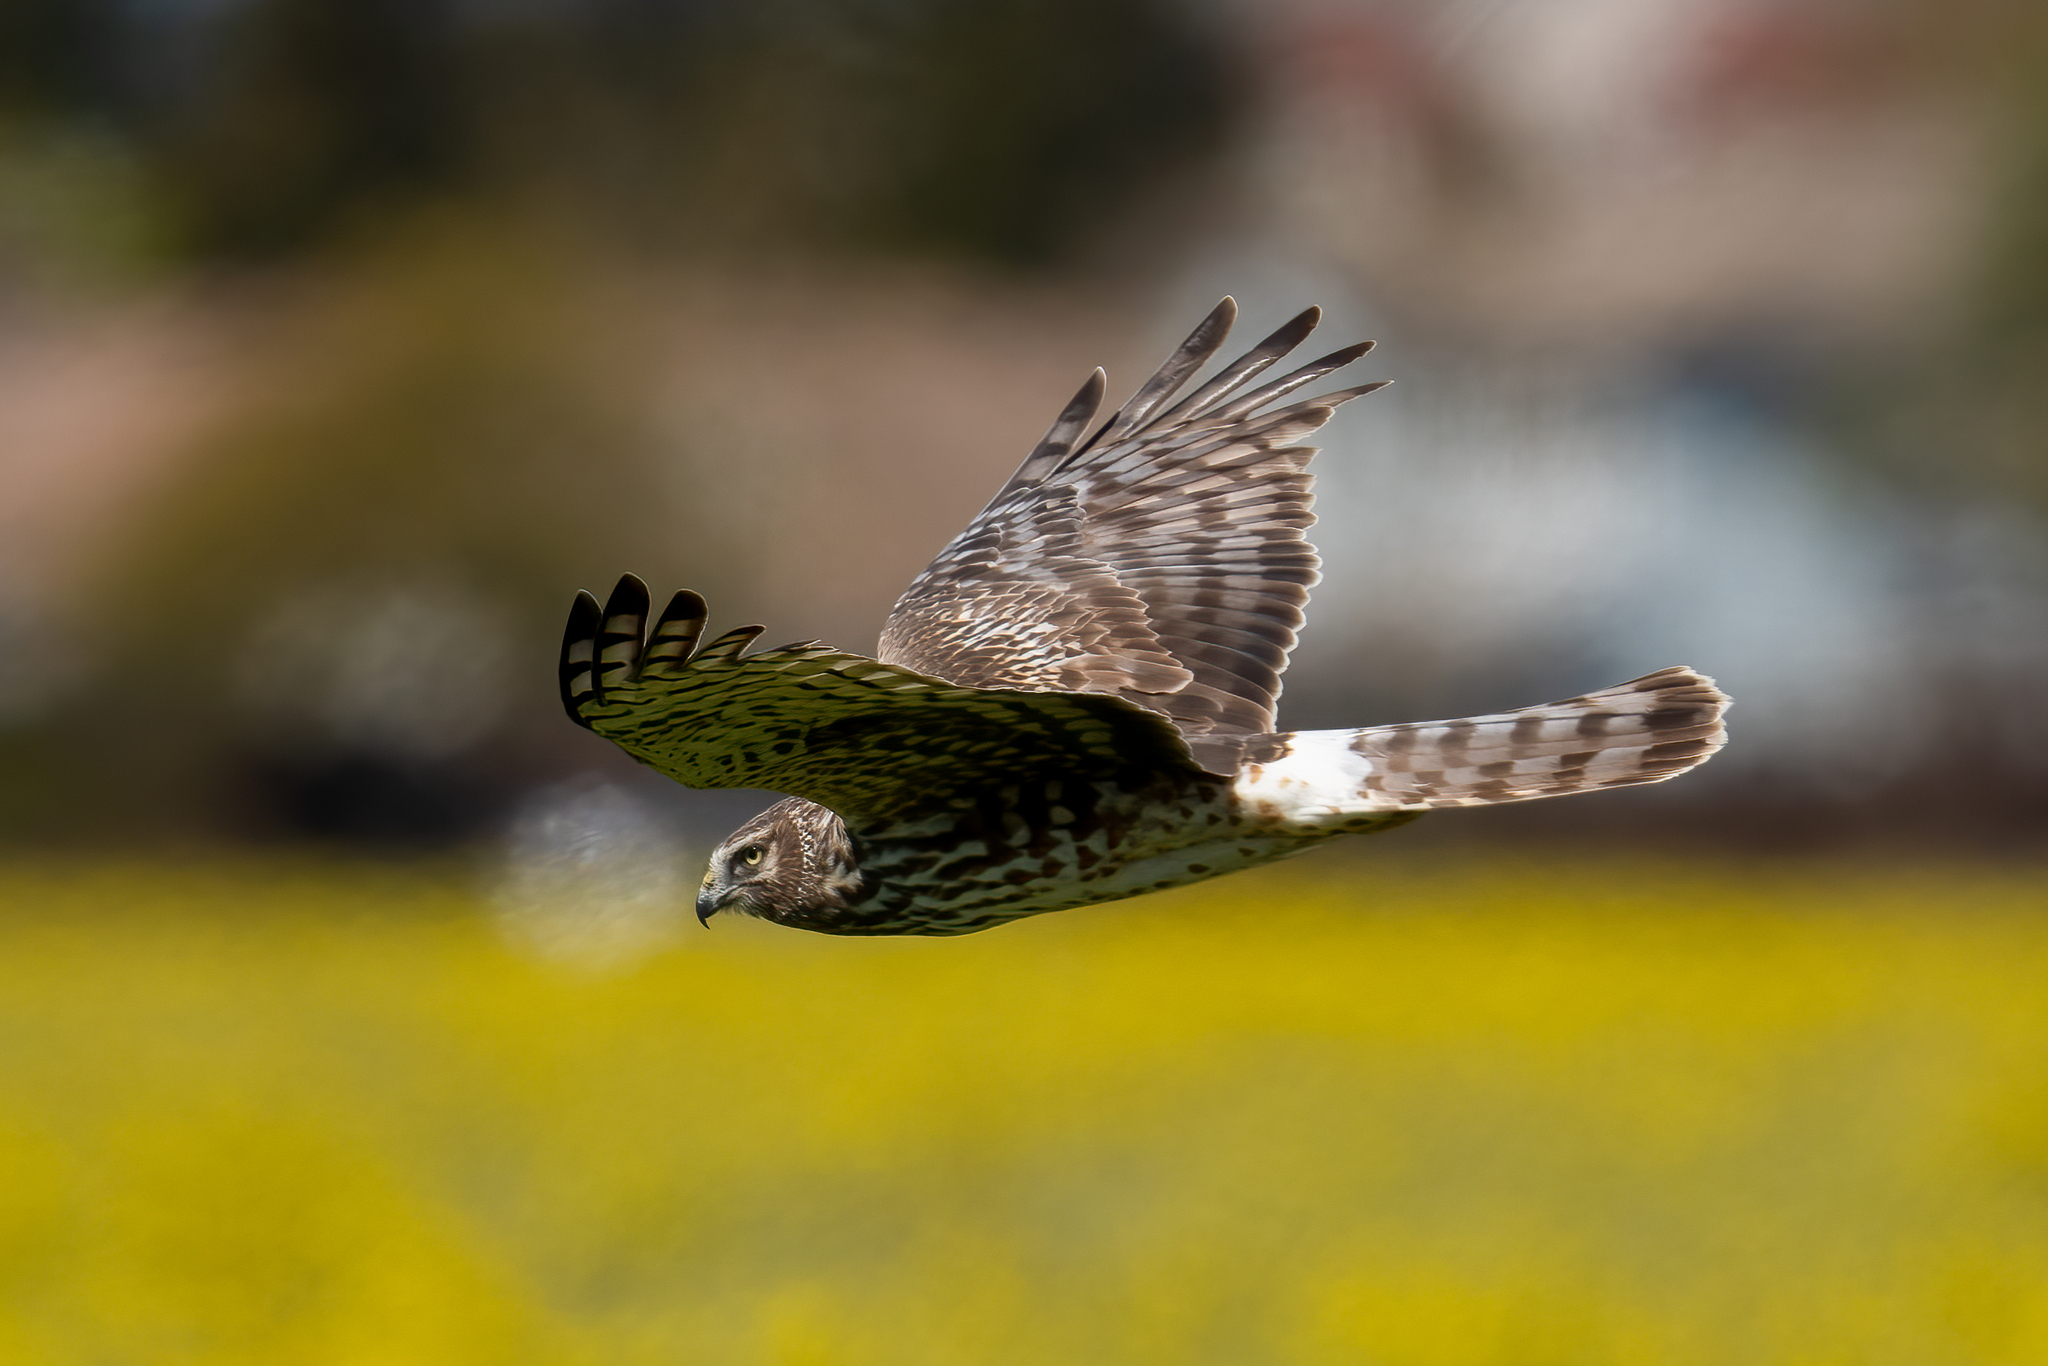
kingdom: Animalia
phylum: Chordata
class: Aves
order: Accipitriformes
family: Accipitridae
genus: Circus
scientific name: Circus cyaneus
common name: Hen harrier
